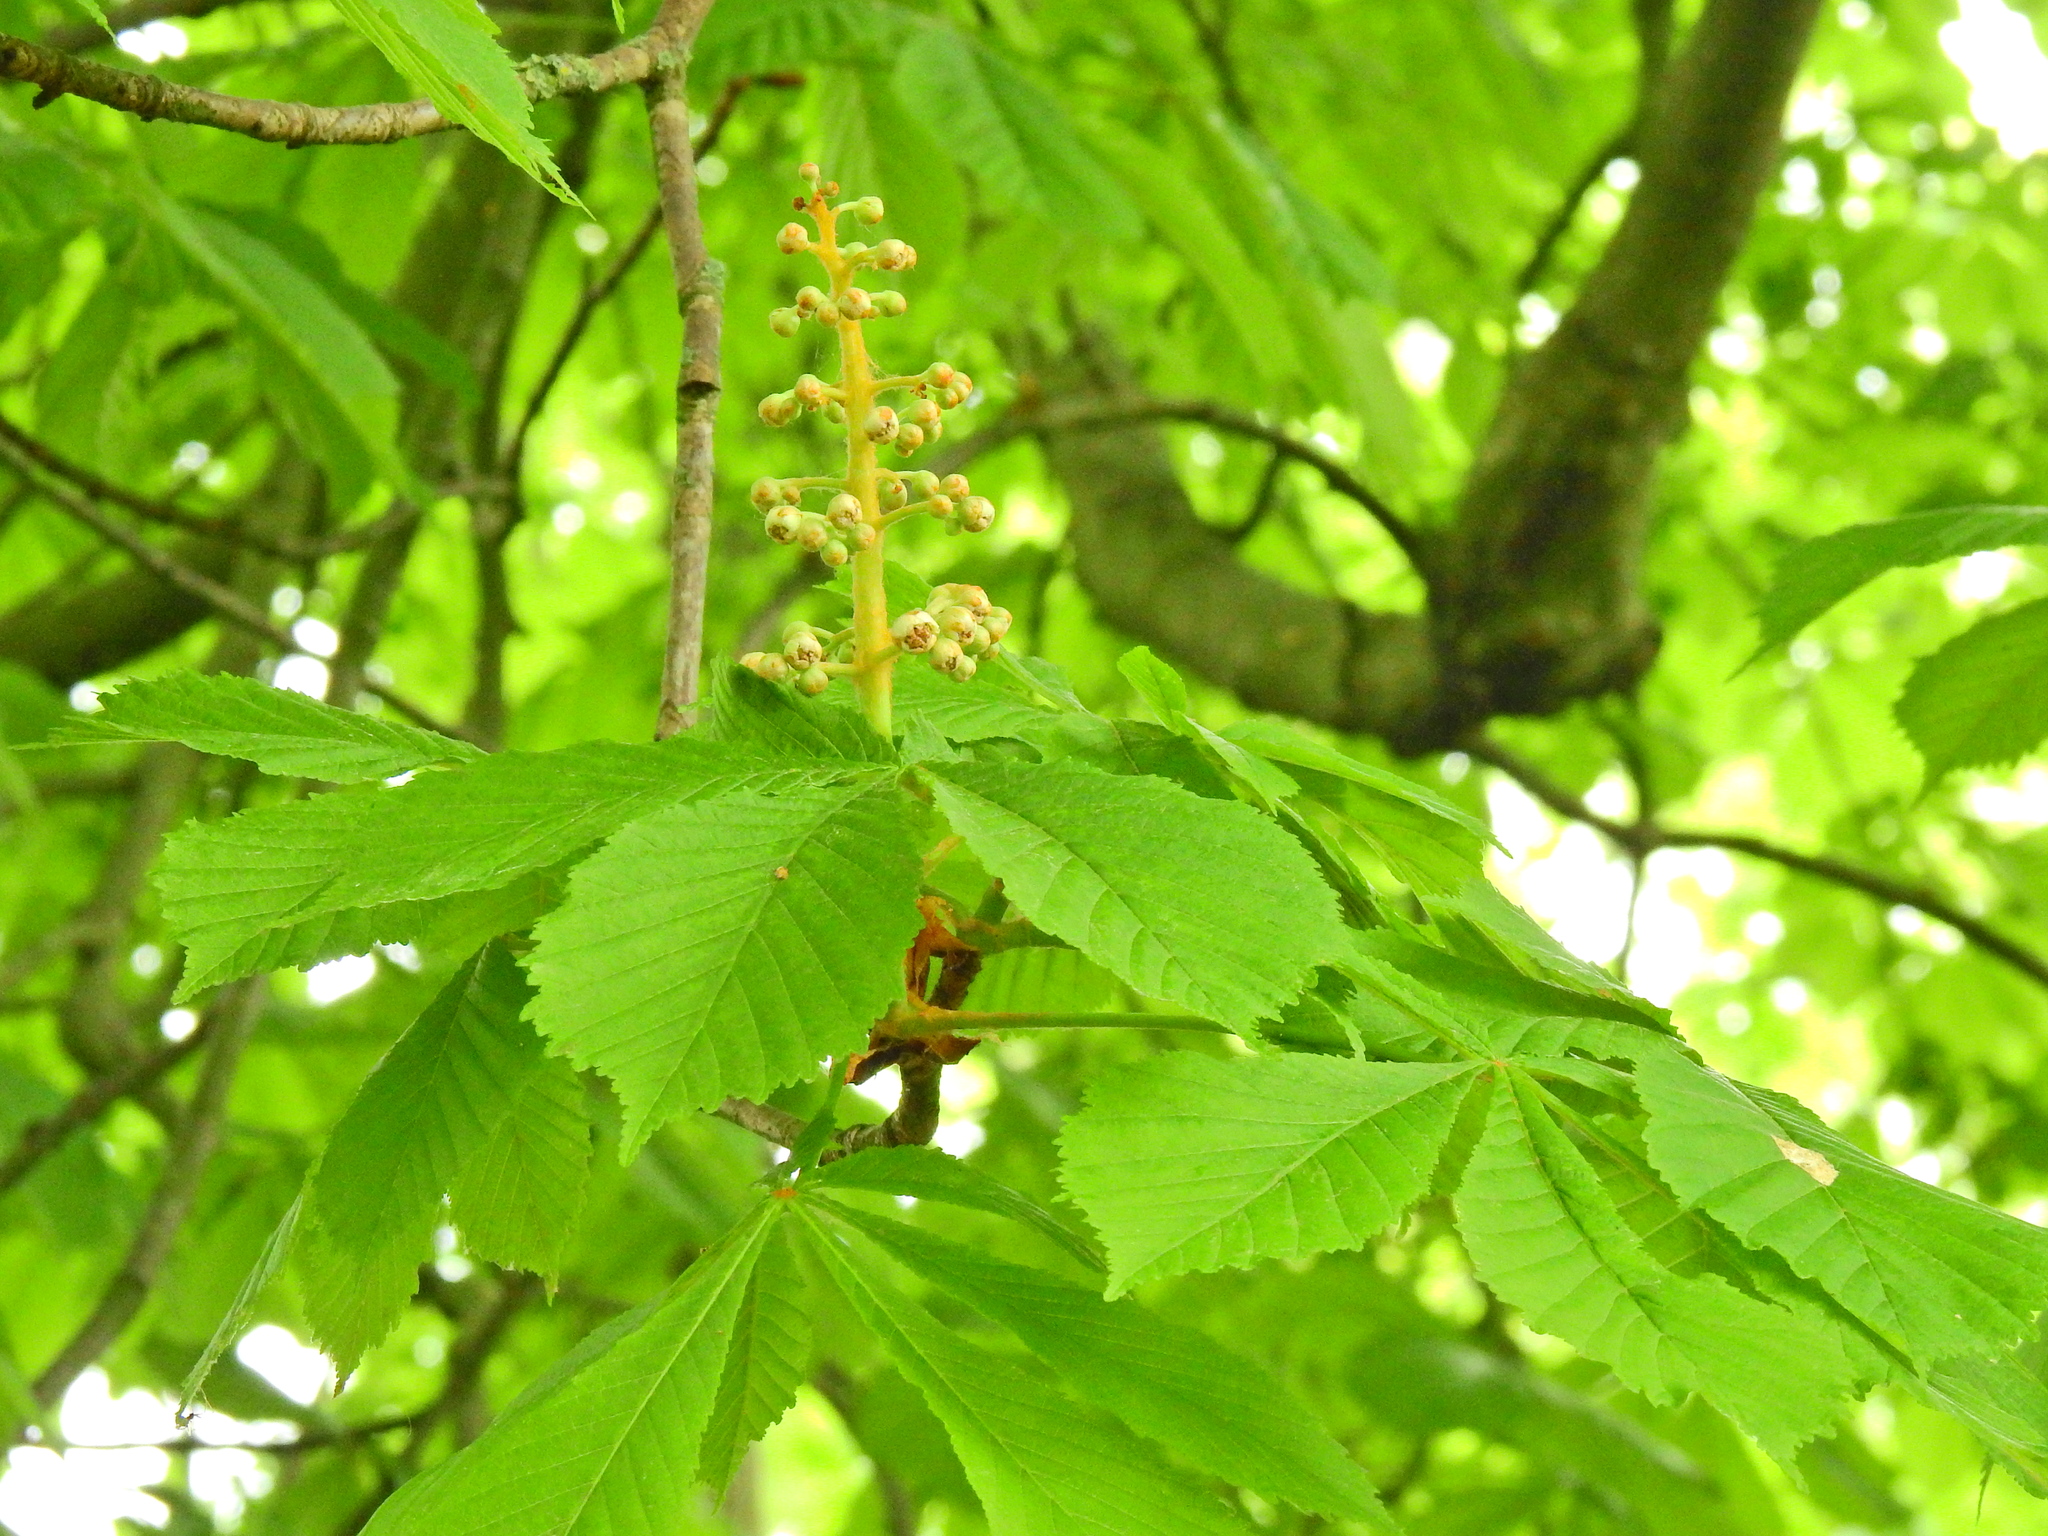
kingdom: Plantae
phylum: Tracheophyta
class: Magnoliopsida
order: Sapindales
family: Sapindaceae
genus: Aesculus
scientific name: Aesculus hippocastanum
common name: Horse-chestnut
